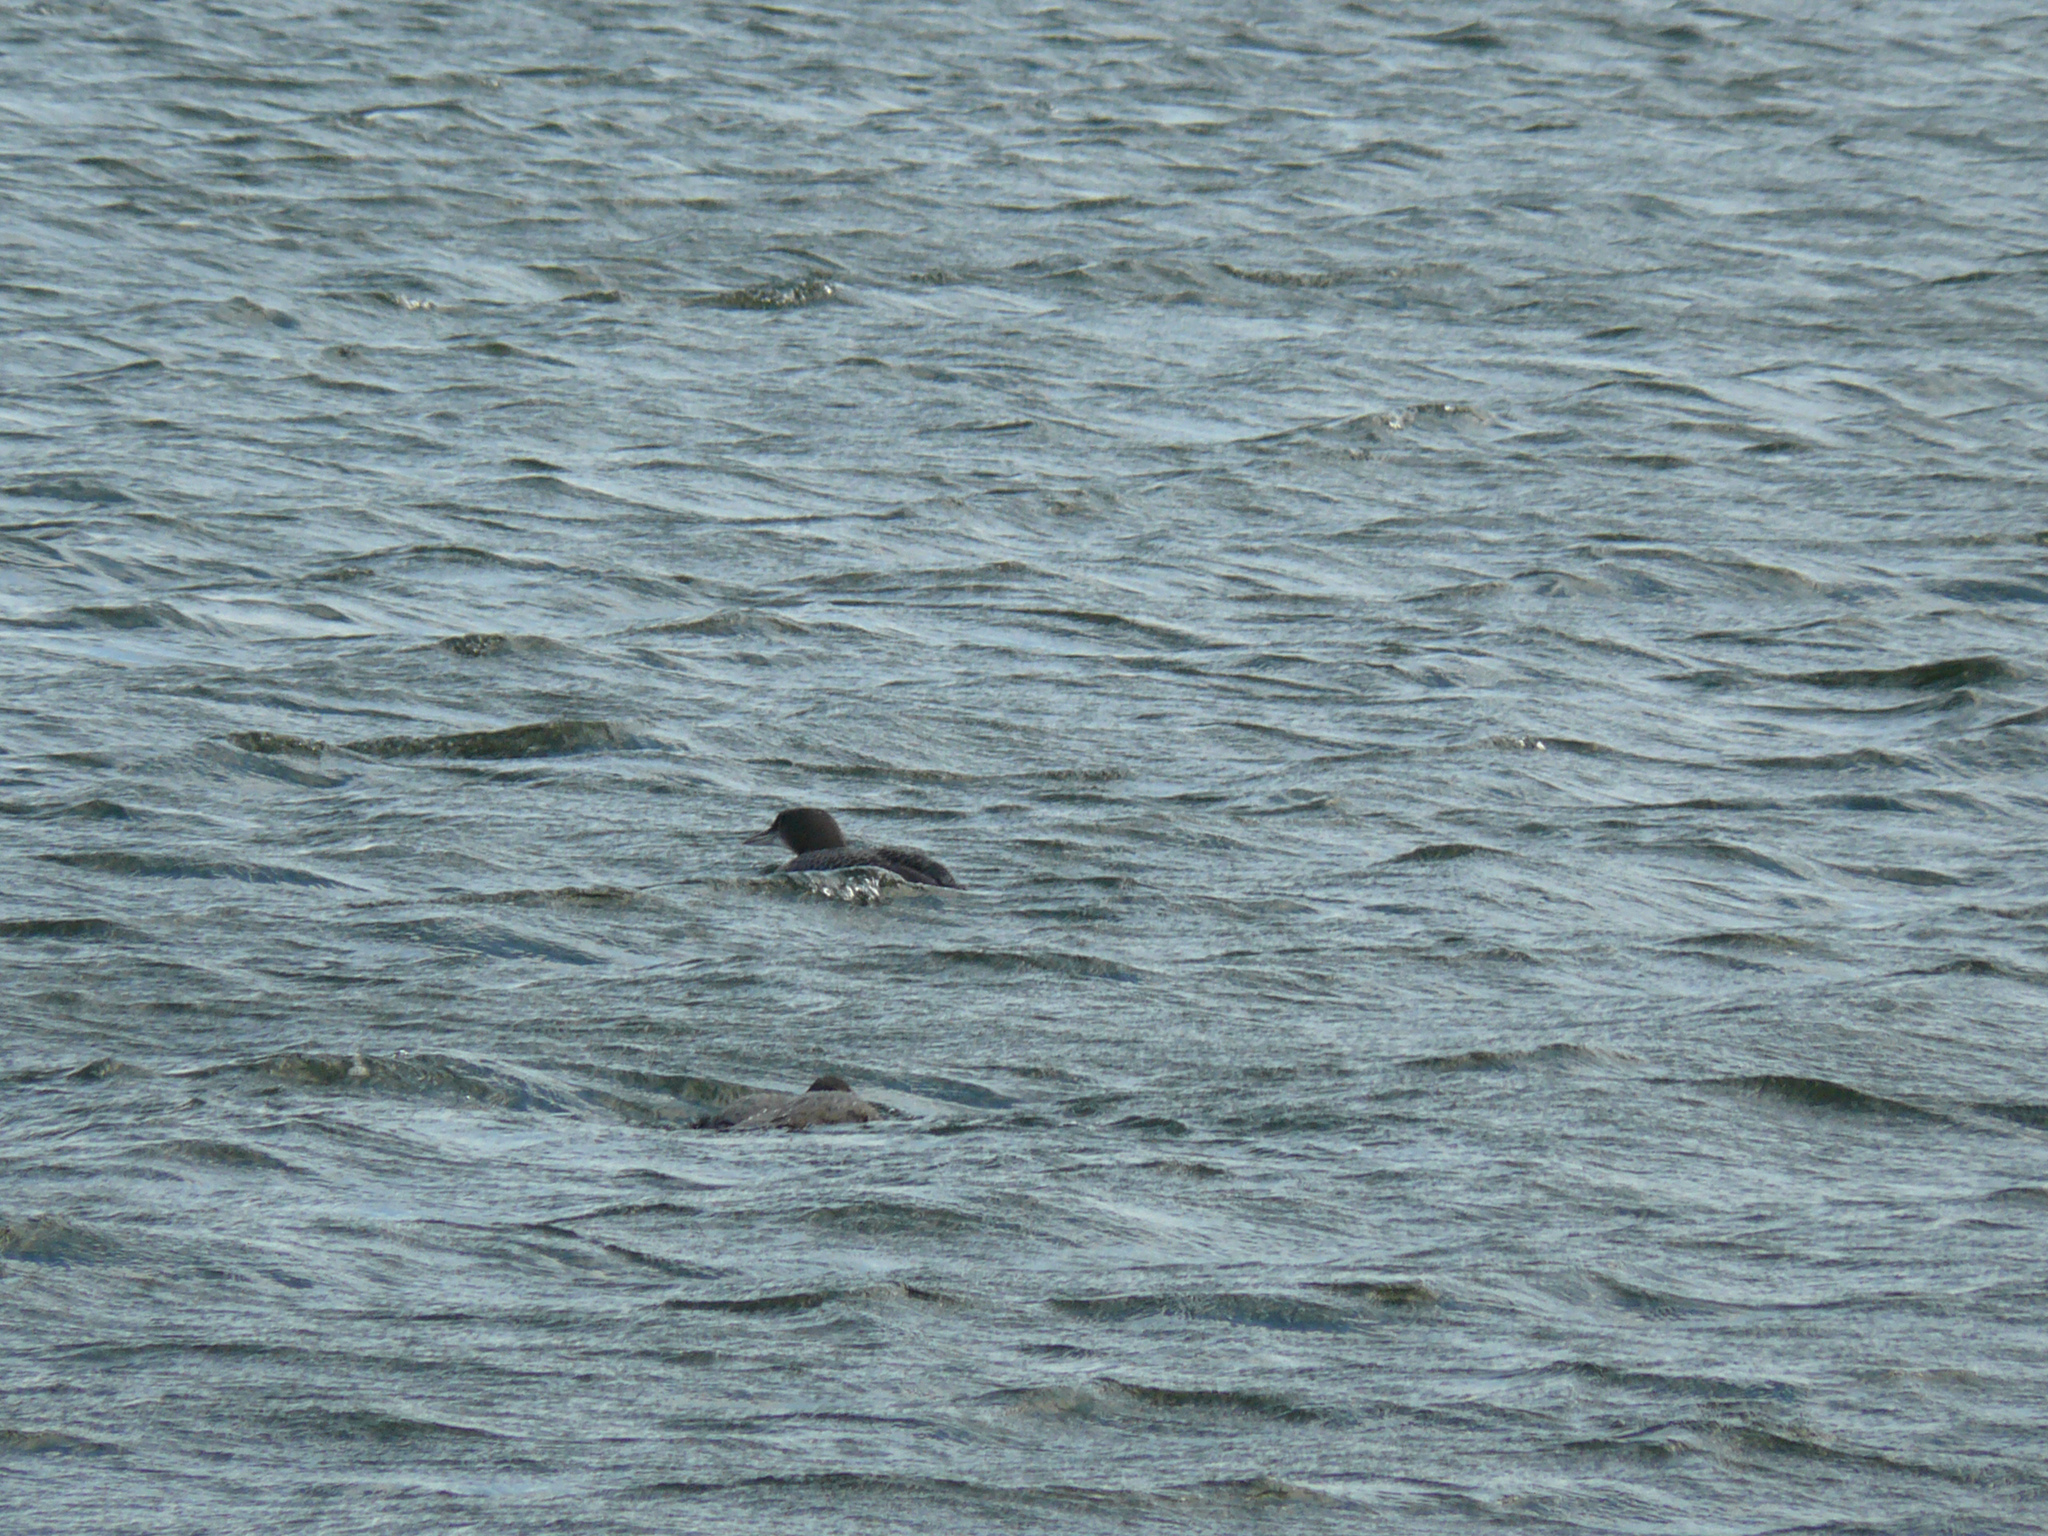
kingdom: Animalia
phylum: Chordata
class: Aves
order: Gaviiformes
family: Gaviidae
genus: Gavia
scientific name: Gavia immer
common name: Common loon
